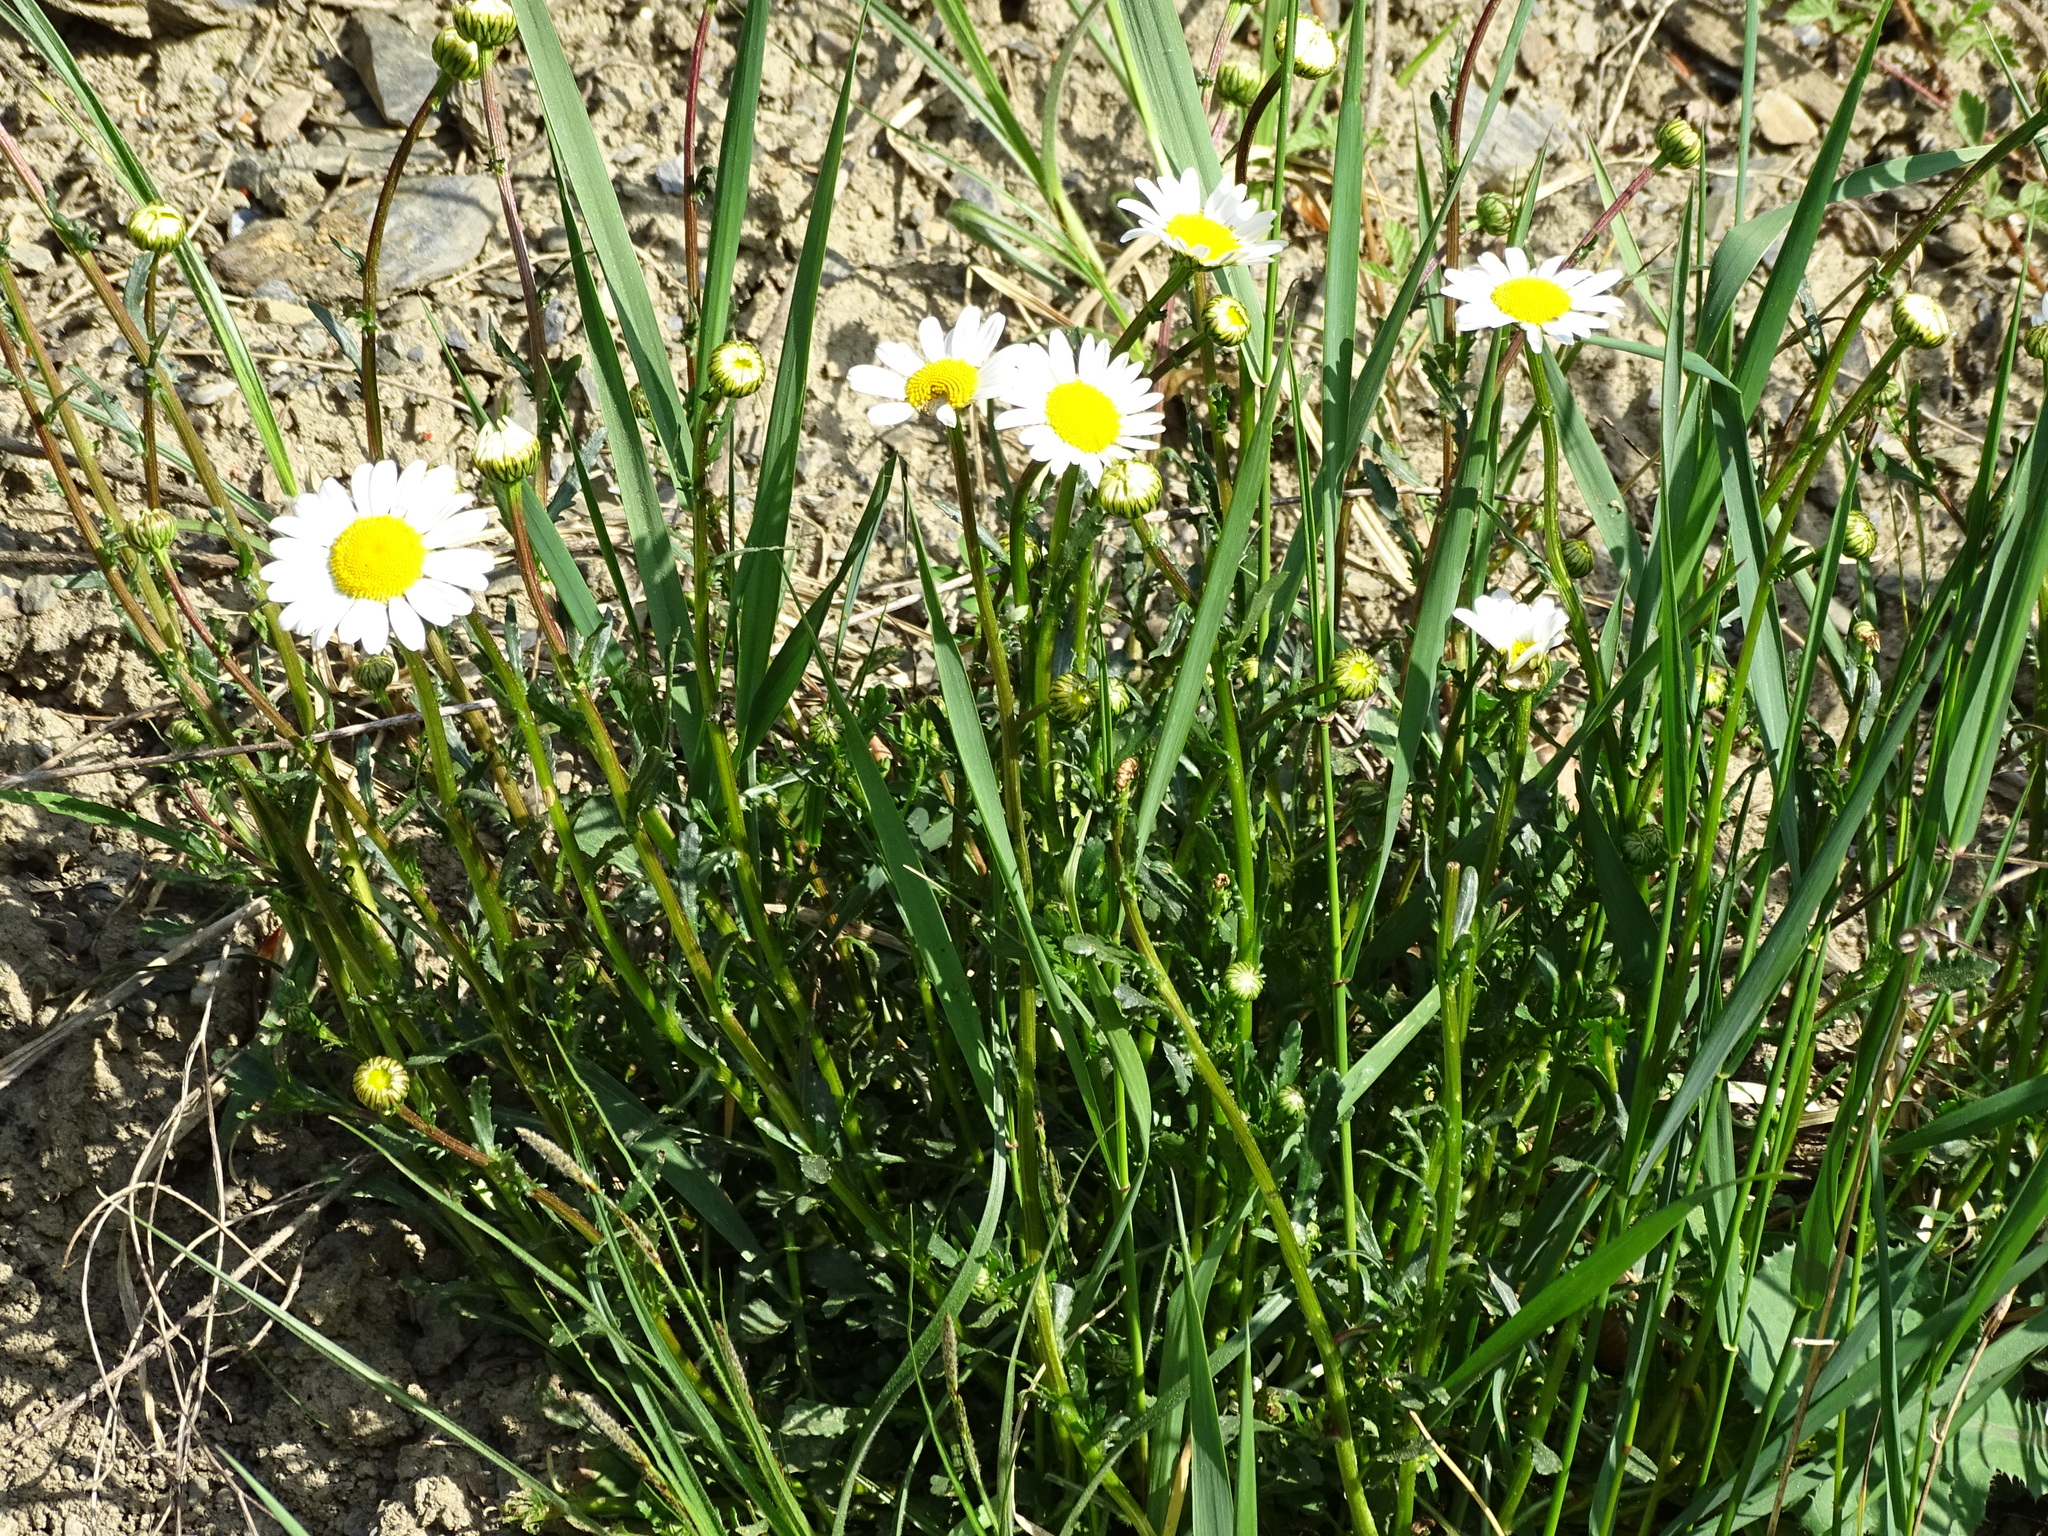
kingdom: Plantae
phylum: Tracheophyta
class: Magnoliopsida
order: Asterales
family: Asteraceae
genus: Leucanthemum
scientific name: Leucanthemum vulgare
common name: Oxeye daisy
